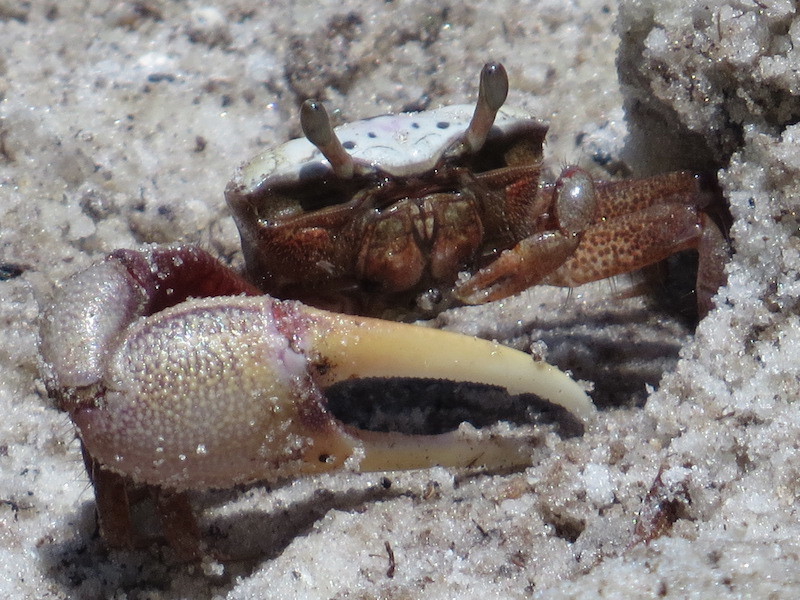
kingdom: Animalia
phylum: Arthropoda
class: Malacostraca
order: Decapoda
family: Ocypodidae
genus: Leptuca
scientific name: Leptuca pugilator
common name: Atlantic sand fiddler crab
